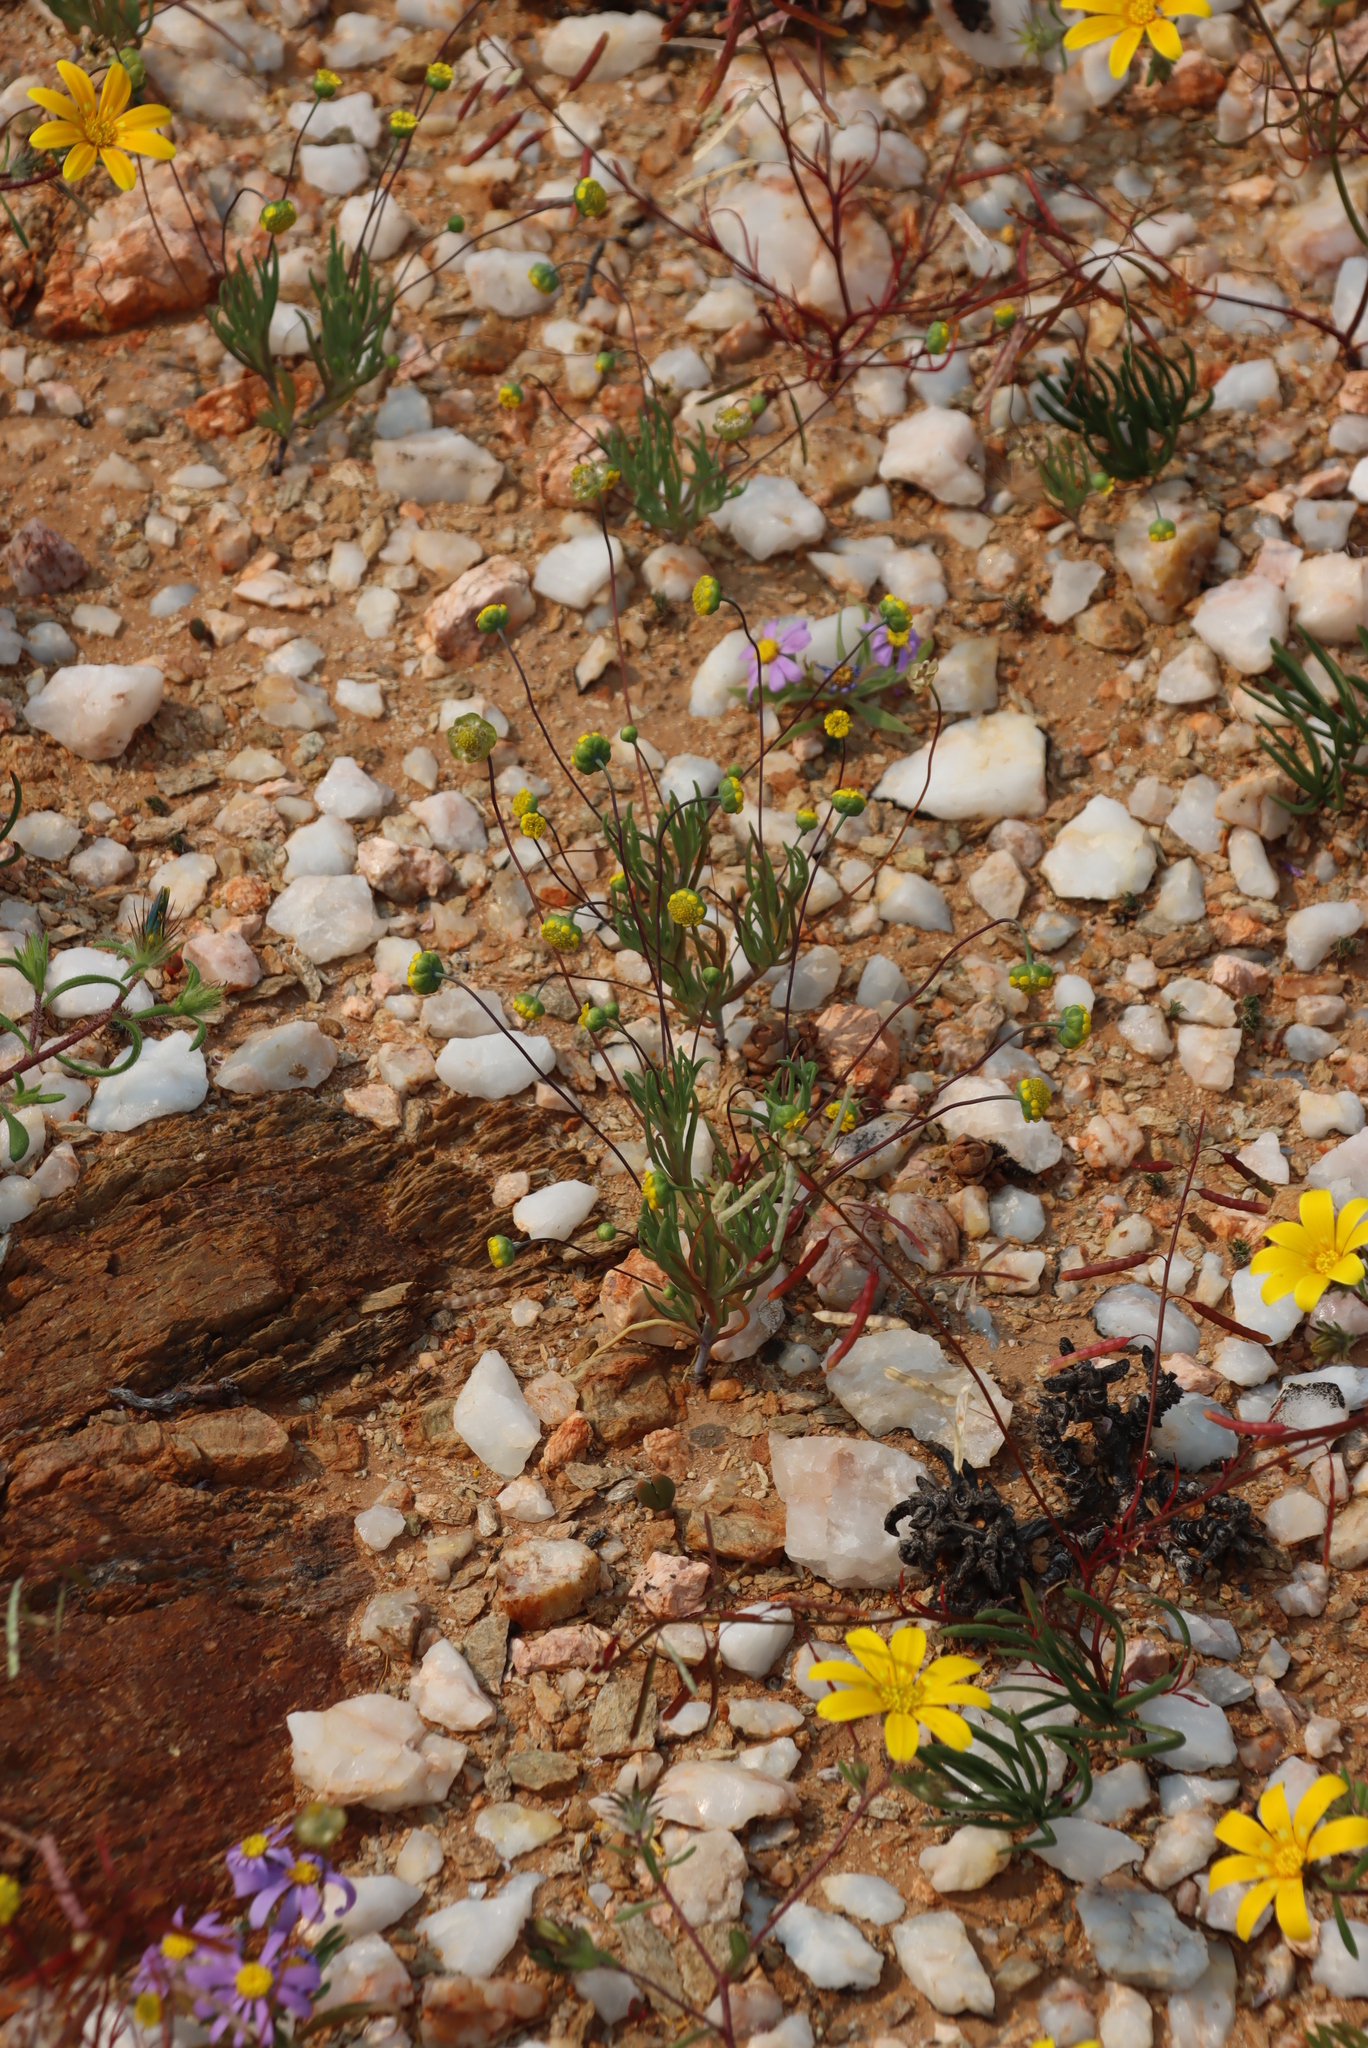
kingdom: Plantae
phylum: Tracheophyta
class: Magnoliopsida
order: Asterales
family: Asteraceae
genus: Adenoglossa
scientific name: Adenoglossa decurrens
